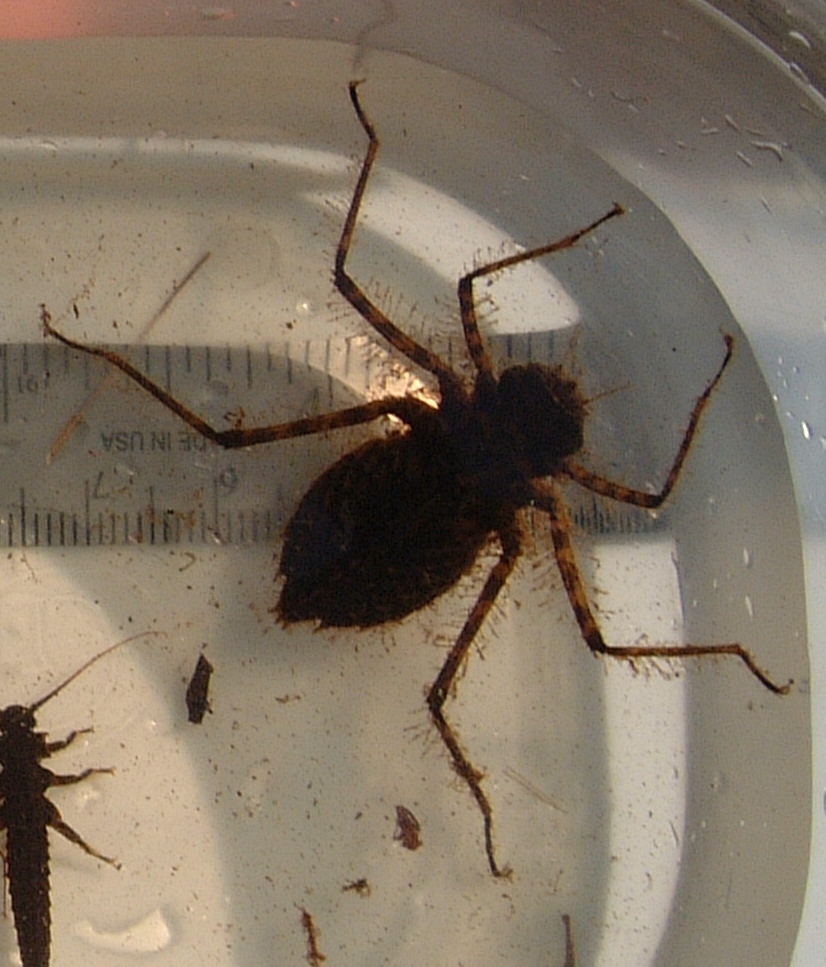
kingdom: Animalia
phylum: Arthropoda
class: Insecta
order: Odonata
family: Macromiidae
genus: Macromia
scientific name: Macromia illinoiensis
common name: Swift river cruiser
